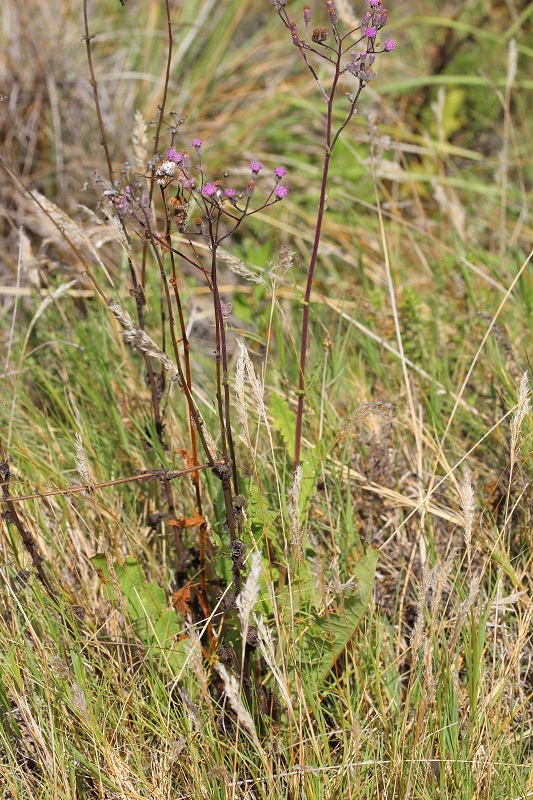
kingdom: Plantae
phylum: Tracheophyta
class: Magnoliopsida
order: Asterales
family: Asteraceae
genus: Senecio
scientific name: Senecio purpureus
